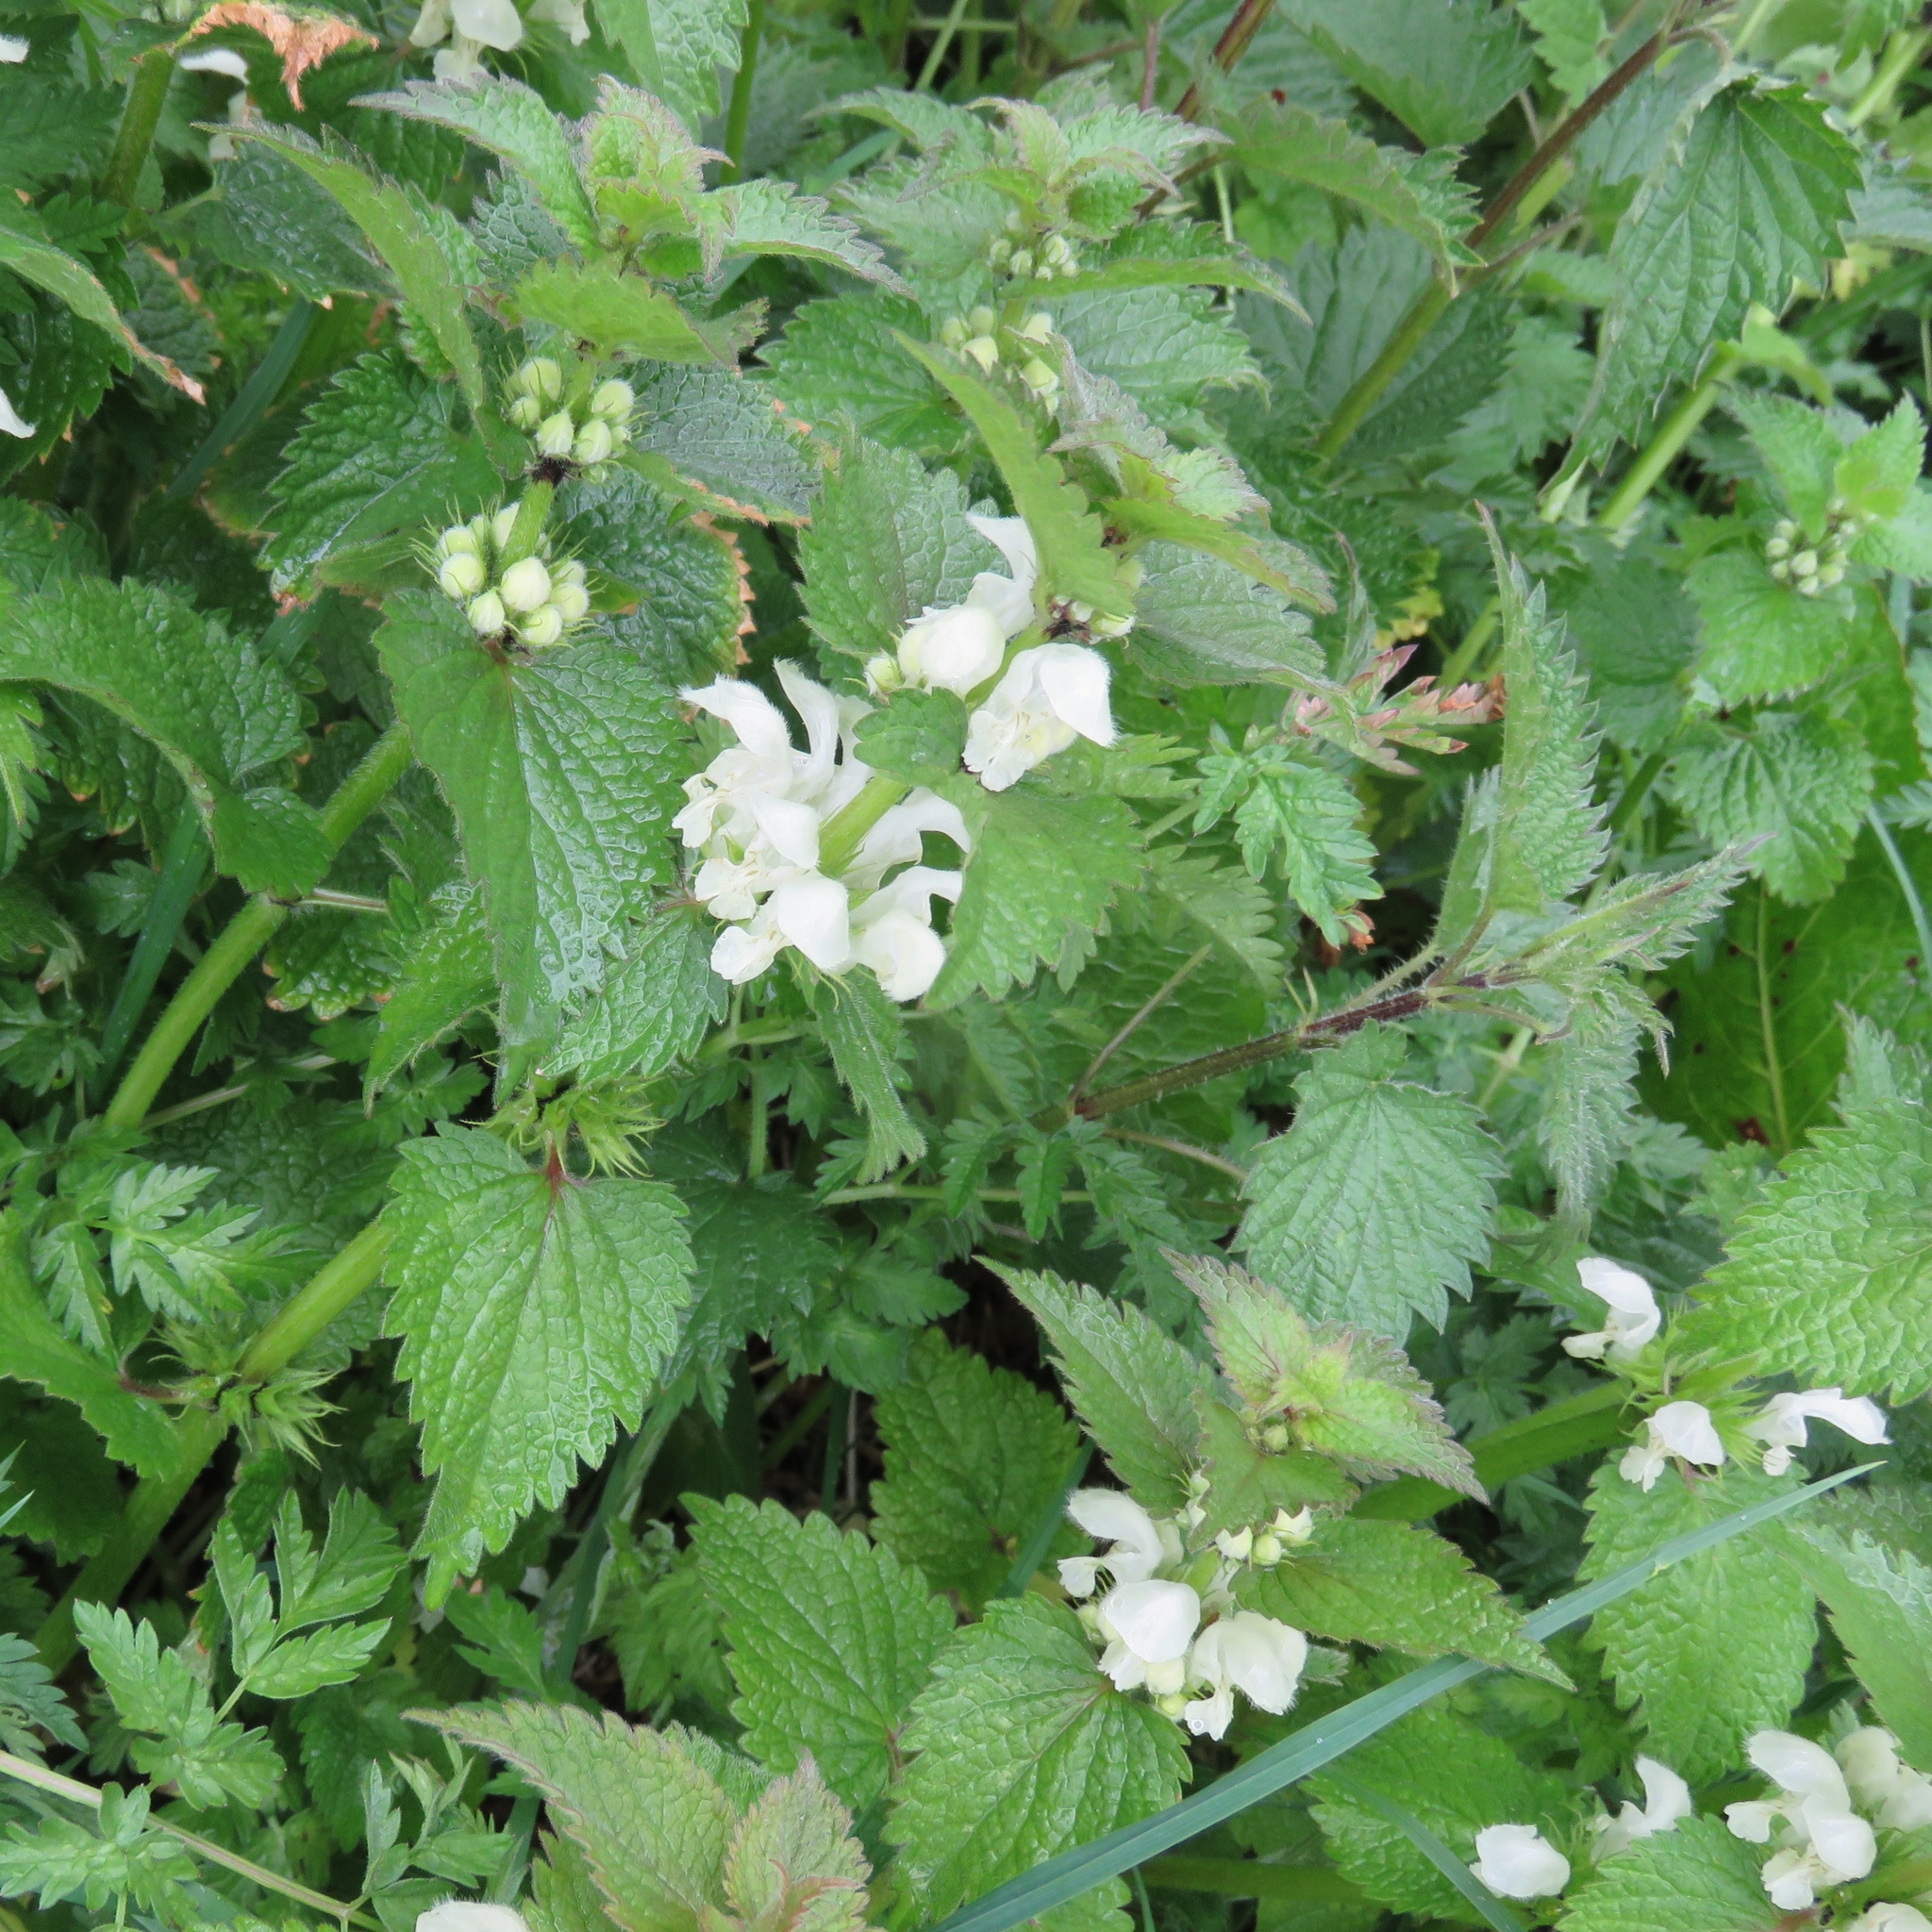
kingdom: Plantae
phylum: Tracheophyta
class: Magnoliopsida
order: Lamiales
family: Lamiaceae
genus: Lamium
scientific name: Lamium album
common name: White dead-nettle
